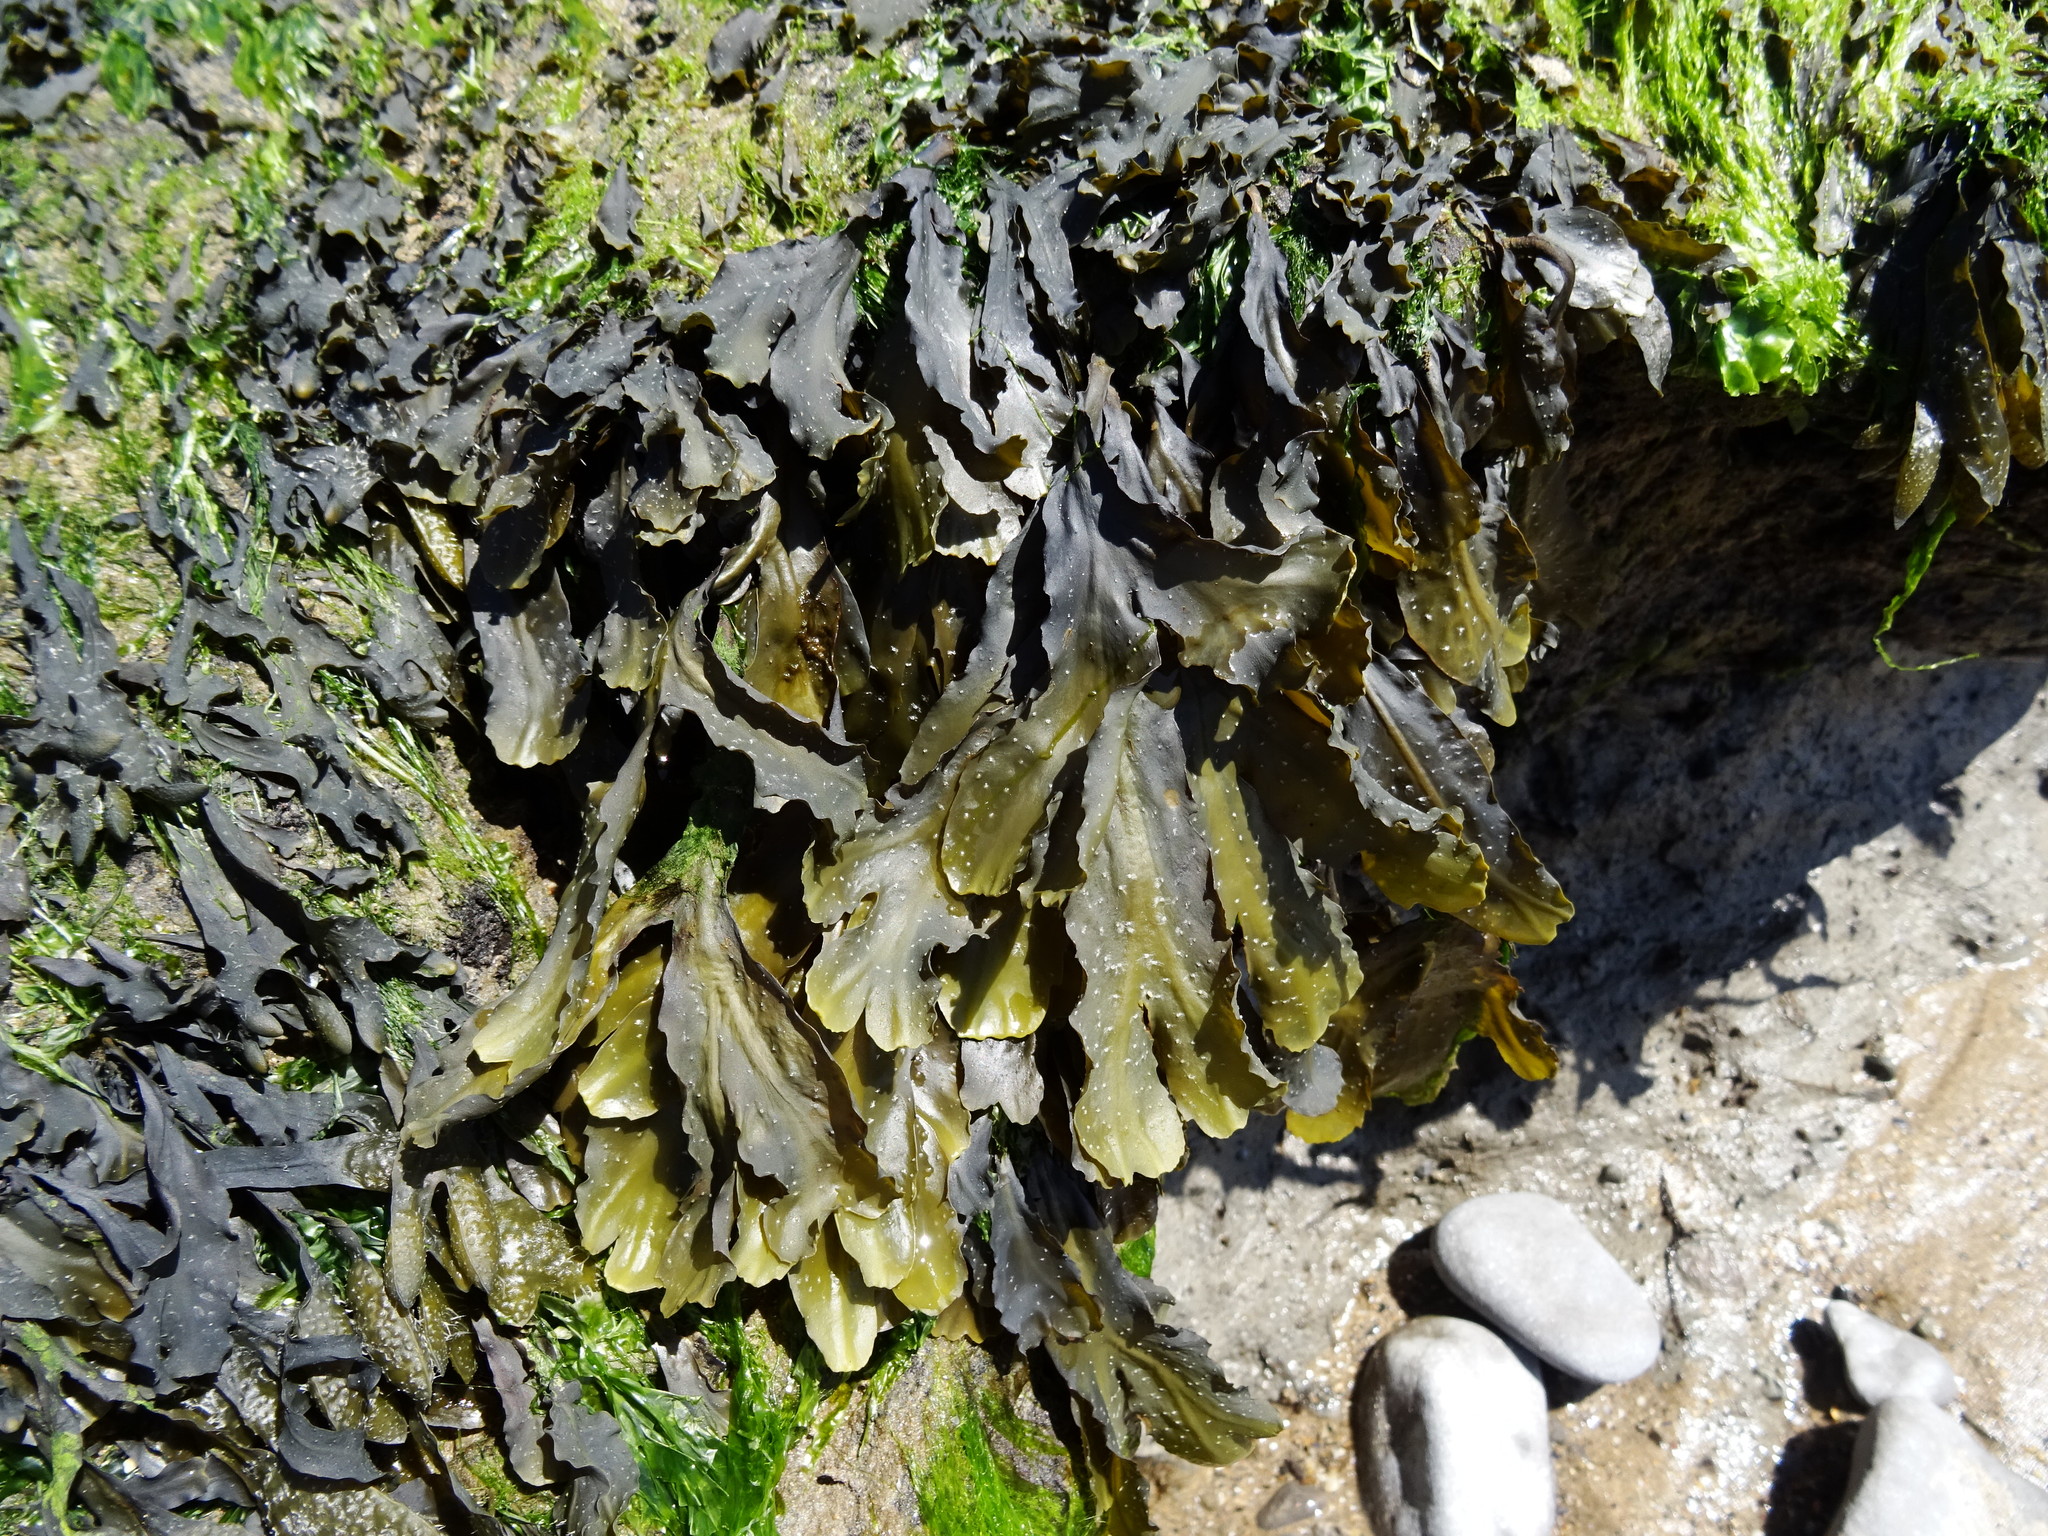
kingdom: Chromista
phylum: Ochrophyta
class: Phaeophyceae
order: Fucales
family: Fucaceae
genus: Fucus
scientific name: Fucus serratus
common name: Toothed wrack
